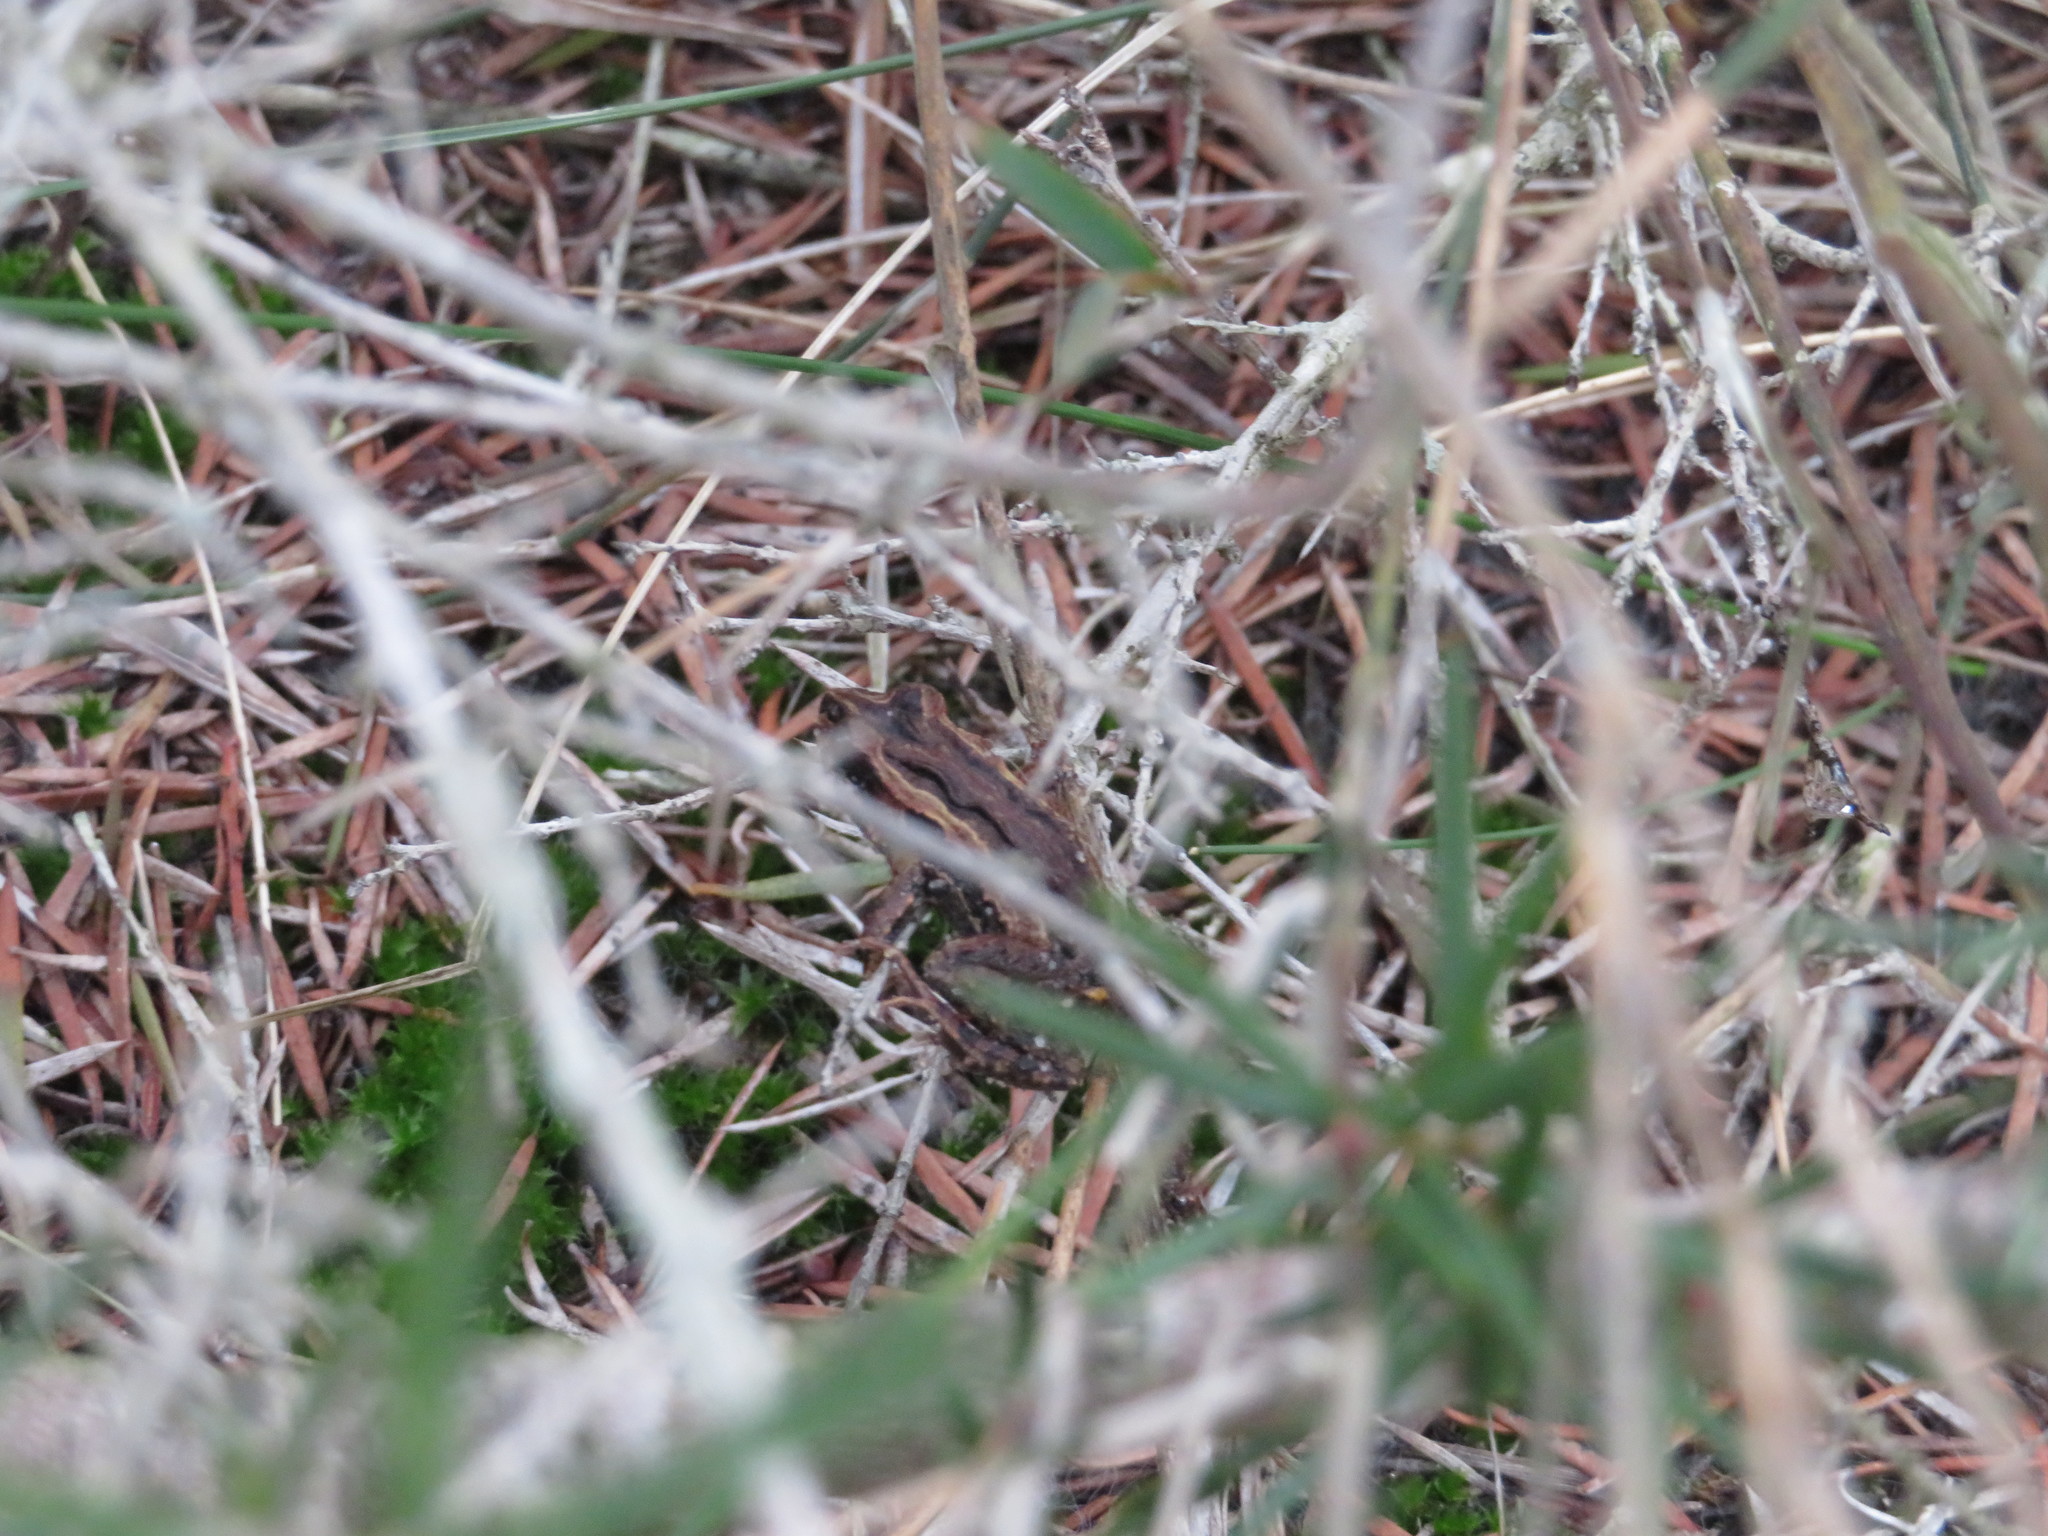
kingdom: Animalia
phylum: Chordata
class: Amphibia
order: Anura
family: Myobatrachidae
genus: Crinia
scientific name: Crinia signifera
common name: Brown froglet
